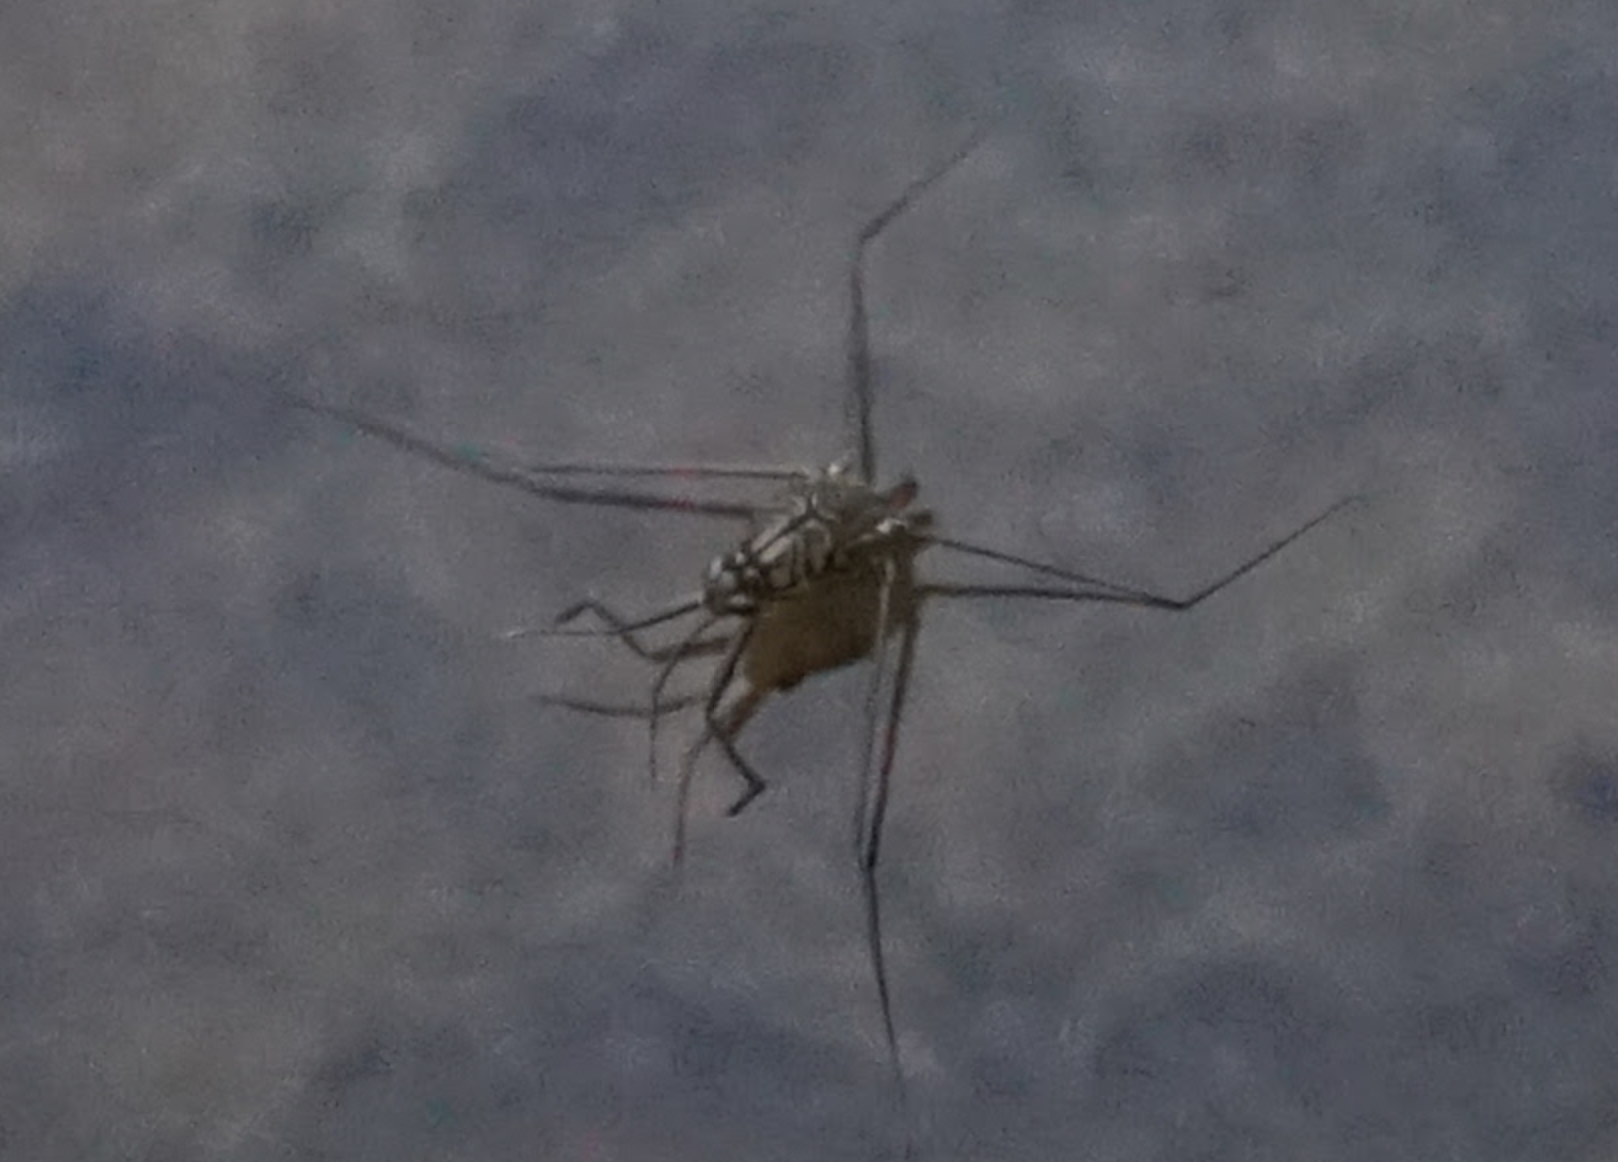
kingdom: Animalia
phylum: Arthropoda
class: Insecta
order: Hemiptera
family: Gerridae
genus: Metrocoris
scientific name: Metrocoris histrio
